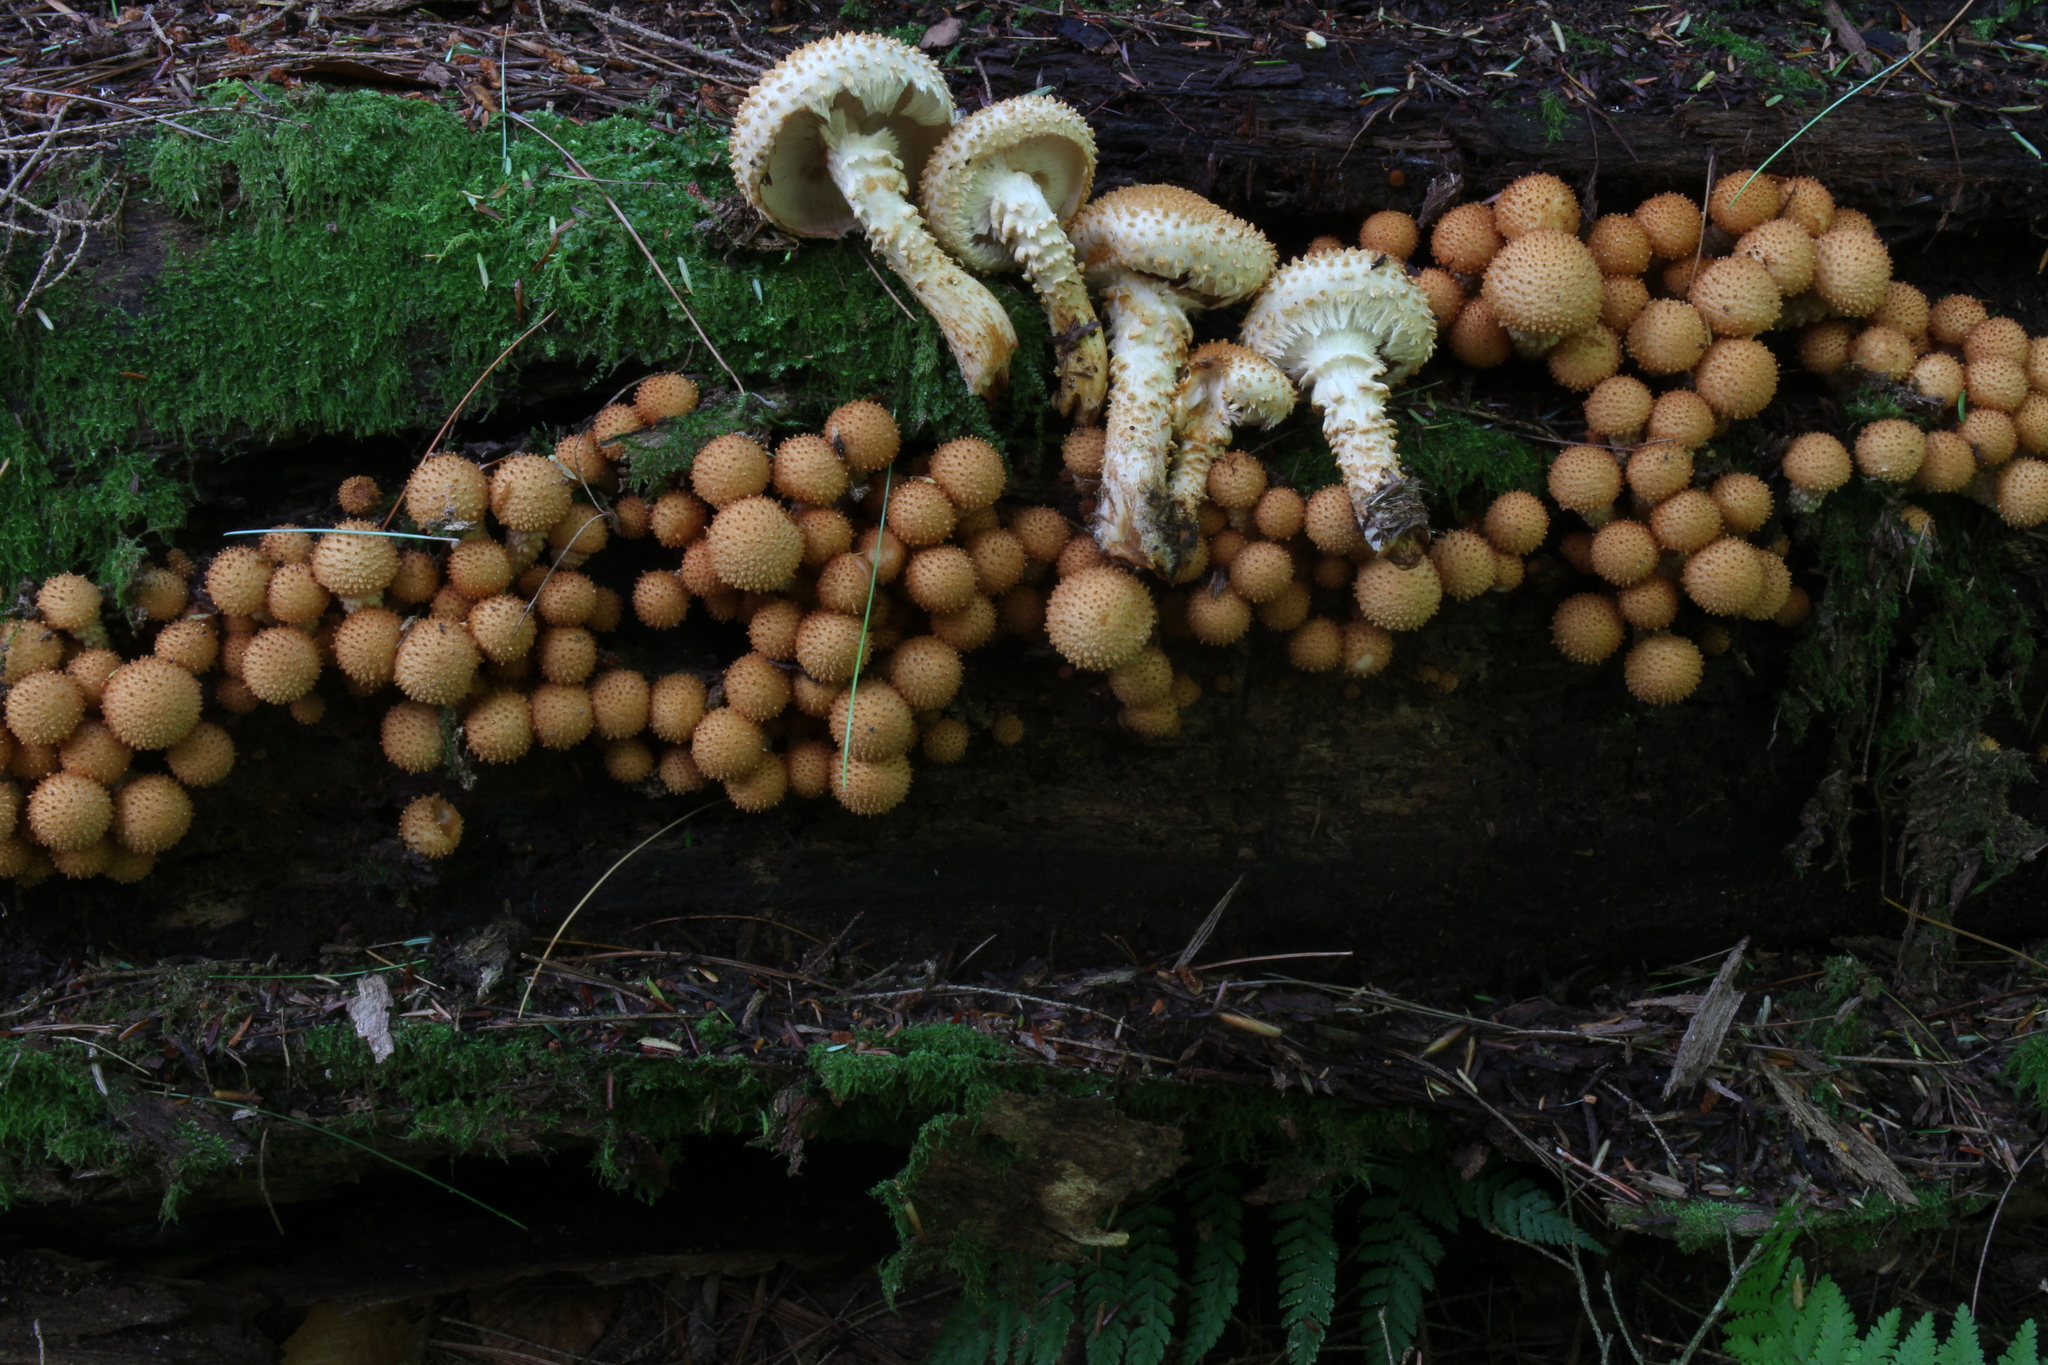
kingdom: Fungi
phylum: Basidiomycota
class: Agaricomycetes
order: Agaricales
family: Strophariaceae
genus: Pholiota
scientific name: Pholiota squarrosoides
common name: Sharp-scaly pholiota
